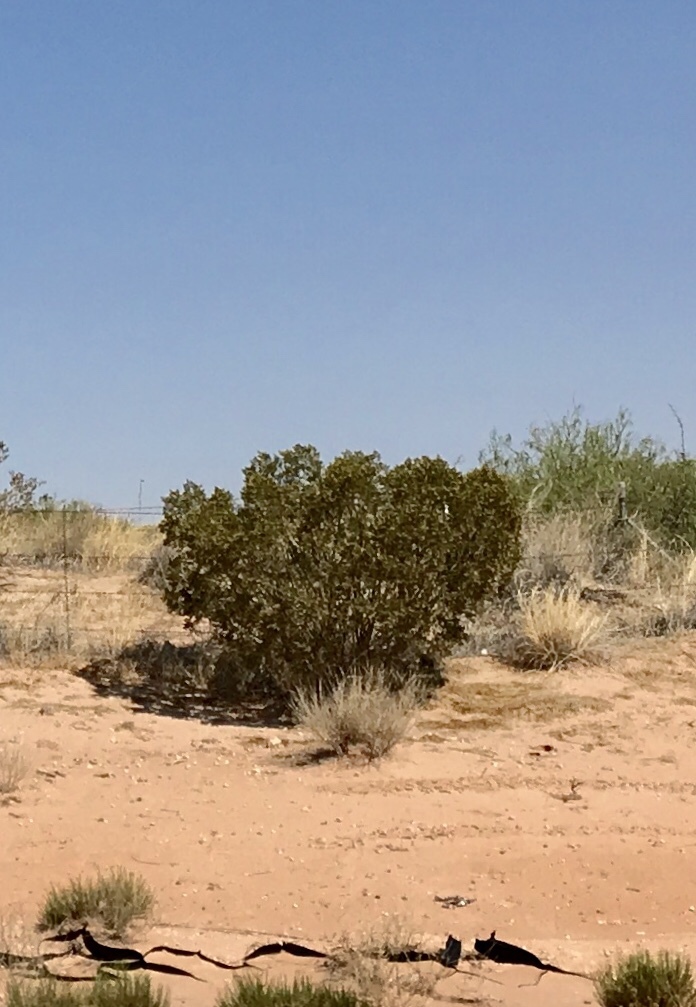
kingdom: Plantae
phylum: Tracheophyta
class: Magnoliopsida
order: Zygophyllales
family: Zygophyllaceae
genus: Larrea
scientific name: Larrea tridentata
